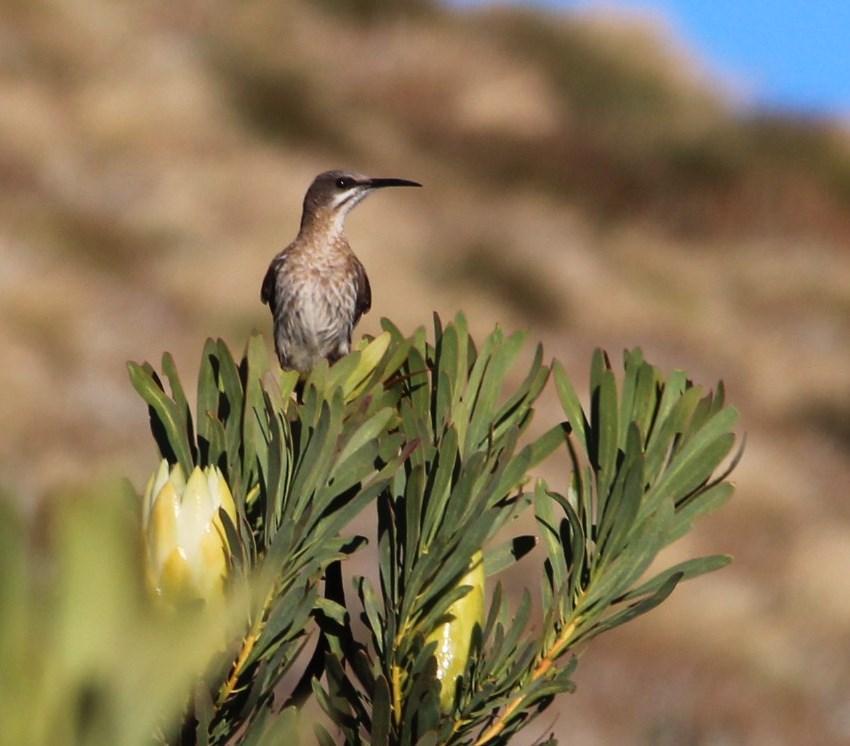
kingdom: Animalia
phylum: Chordata
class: Aves
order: Passeriformes
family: Promeropidae
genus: Promerops
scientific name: Promerops cafer
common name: Cape sugarbird
